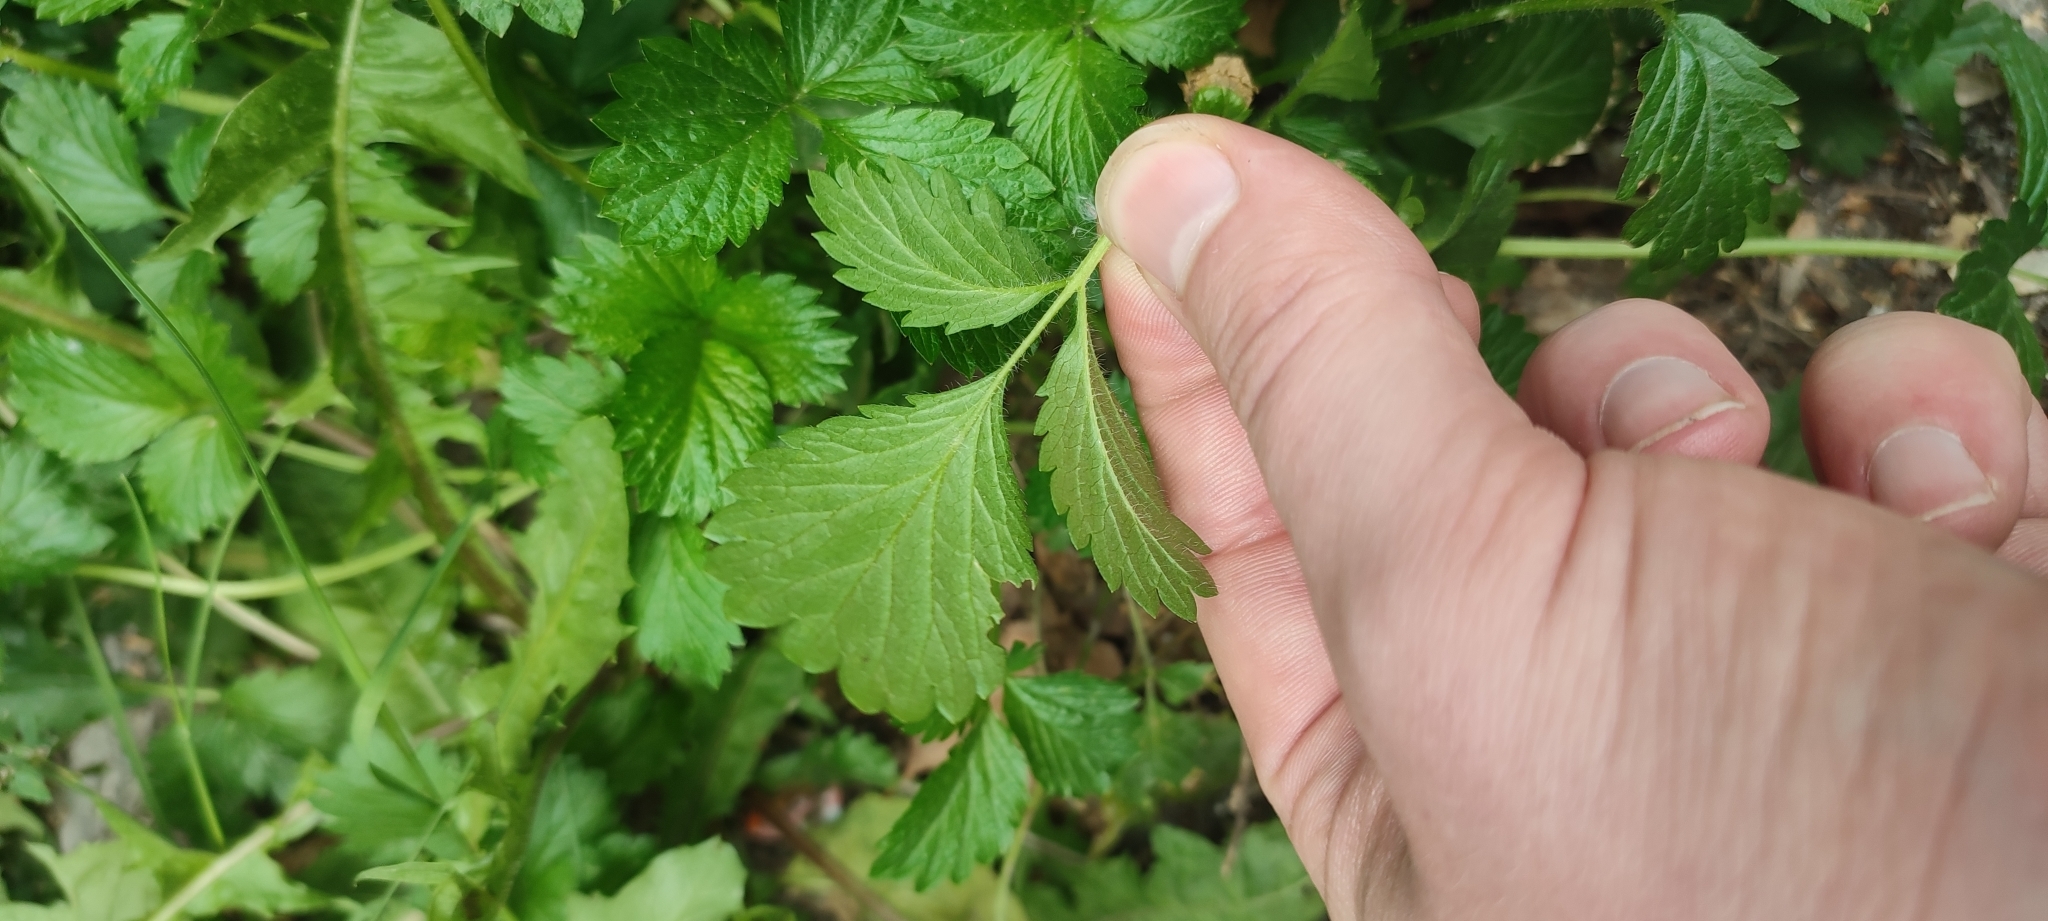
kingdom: Plantae
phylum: Tracheophyta
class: Magnoliopsida
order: Rosales
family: Rosaceae
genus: Potentilla
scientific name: Potentilla norvegica
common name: Ternate-leaved cinquefoil
